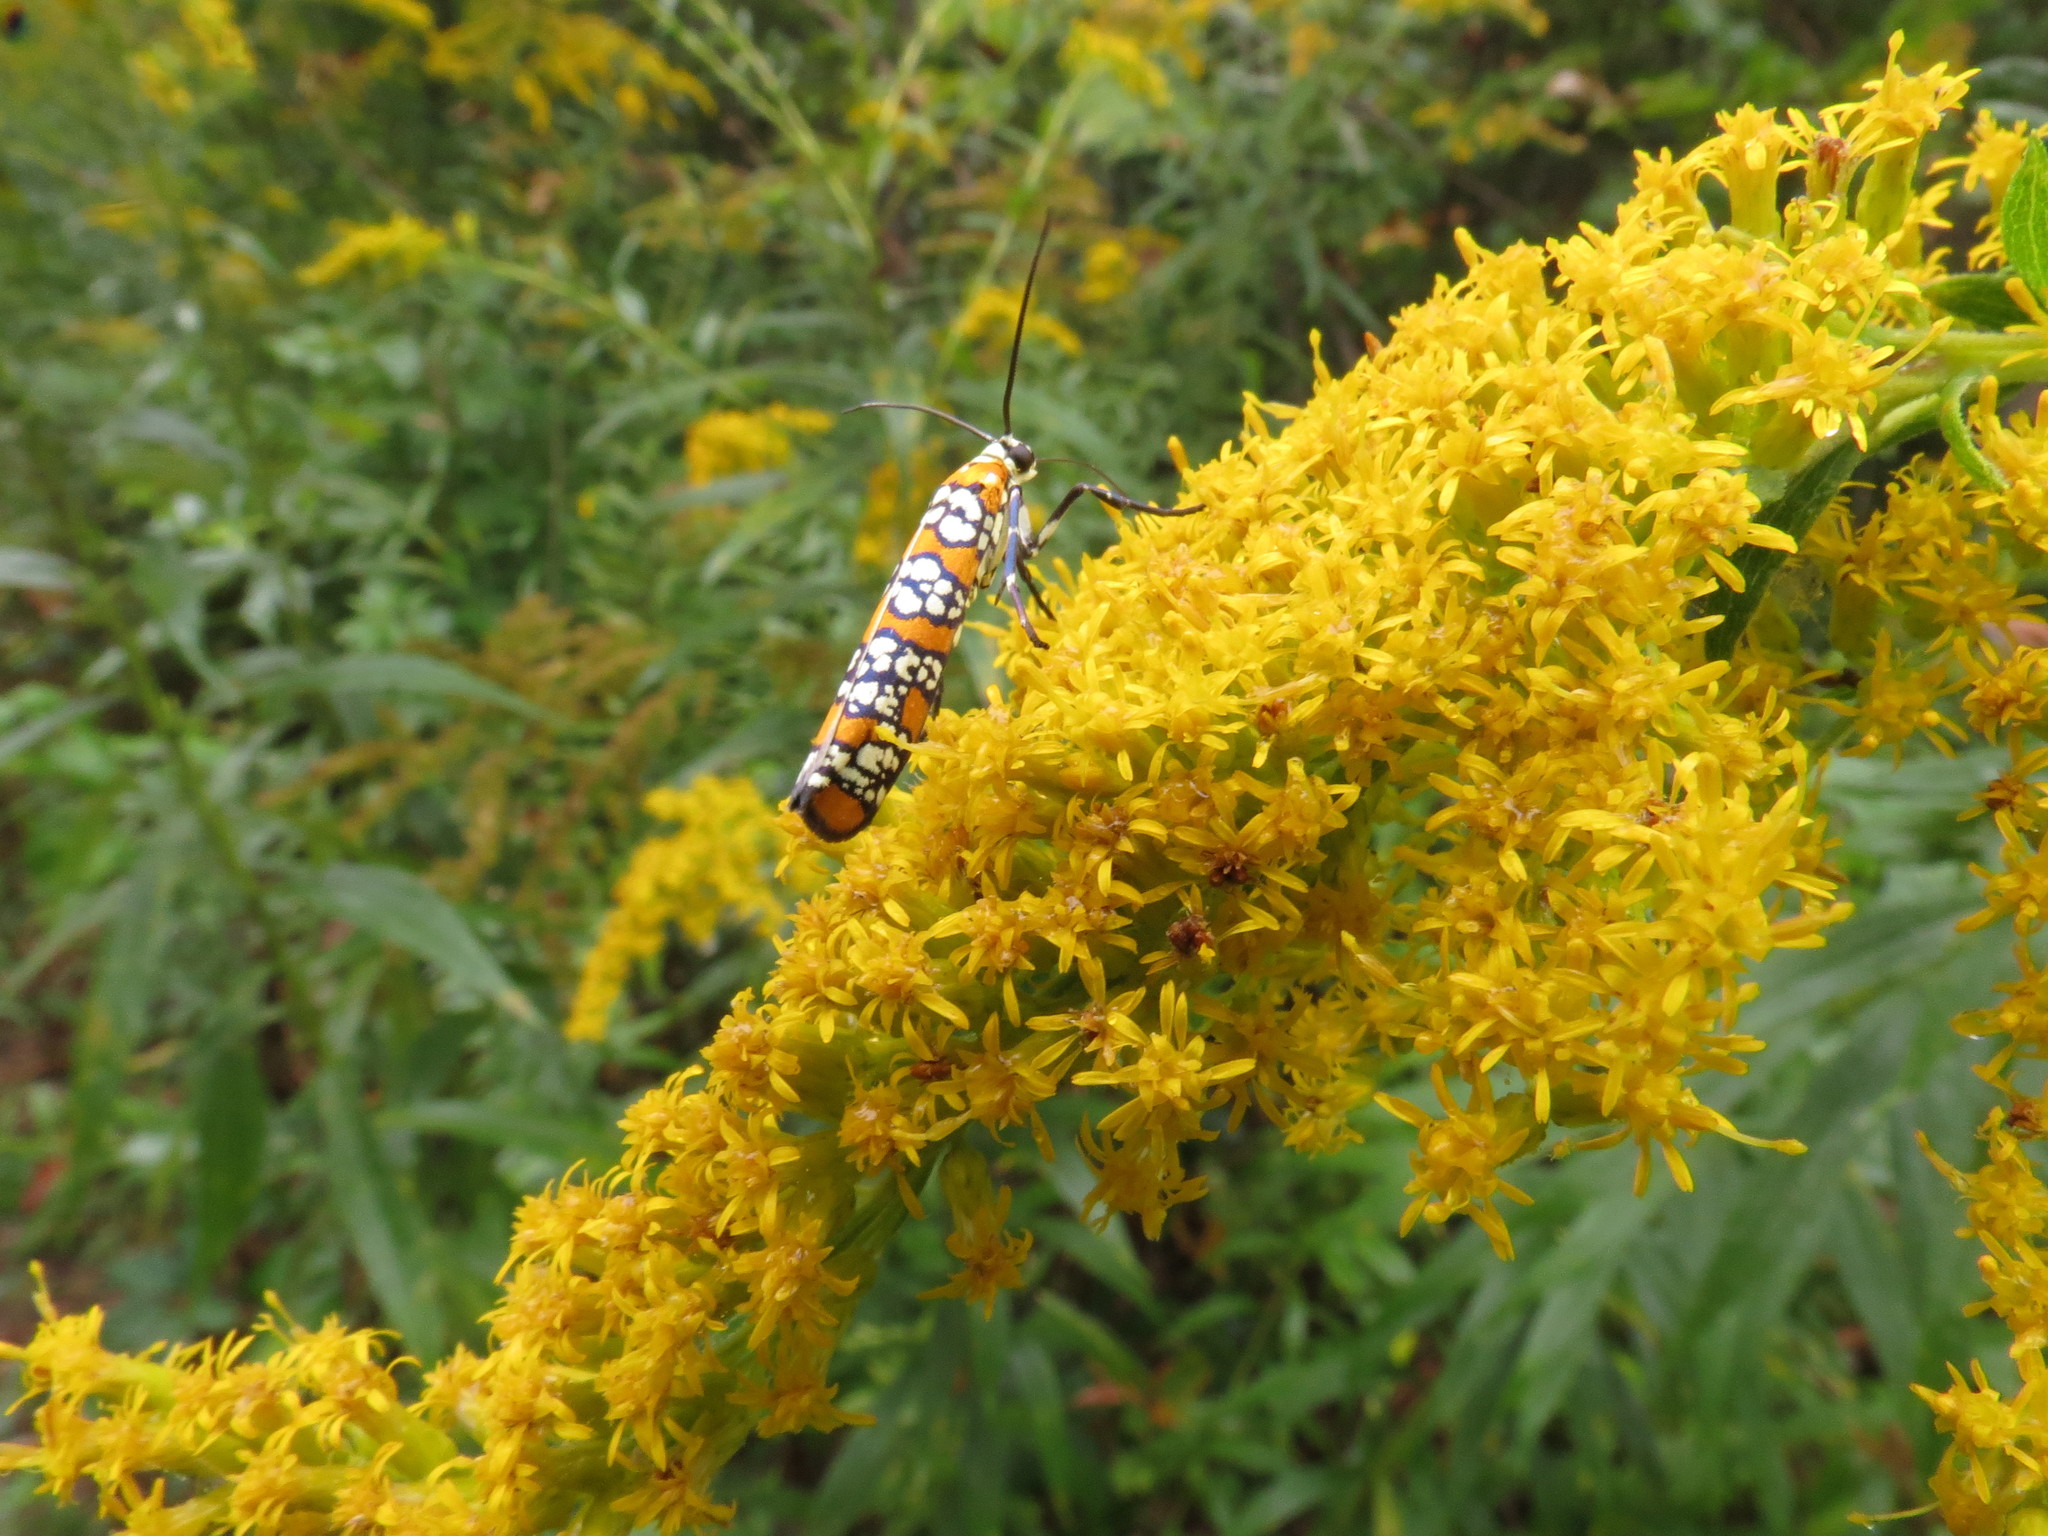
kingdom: Animalia
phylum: Arthropoda
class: Insecta
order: Lepidoptera
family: Attevidae
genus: Atteva
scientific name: Atteva punctella
